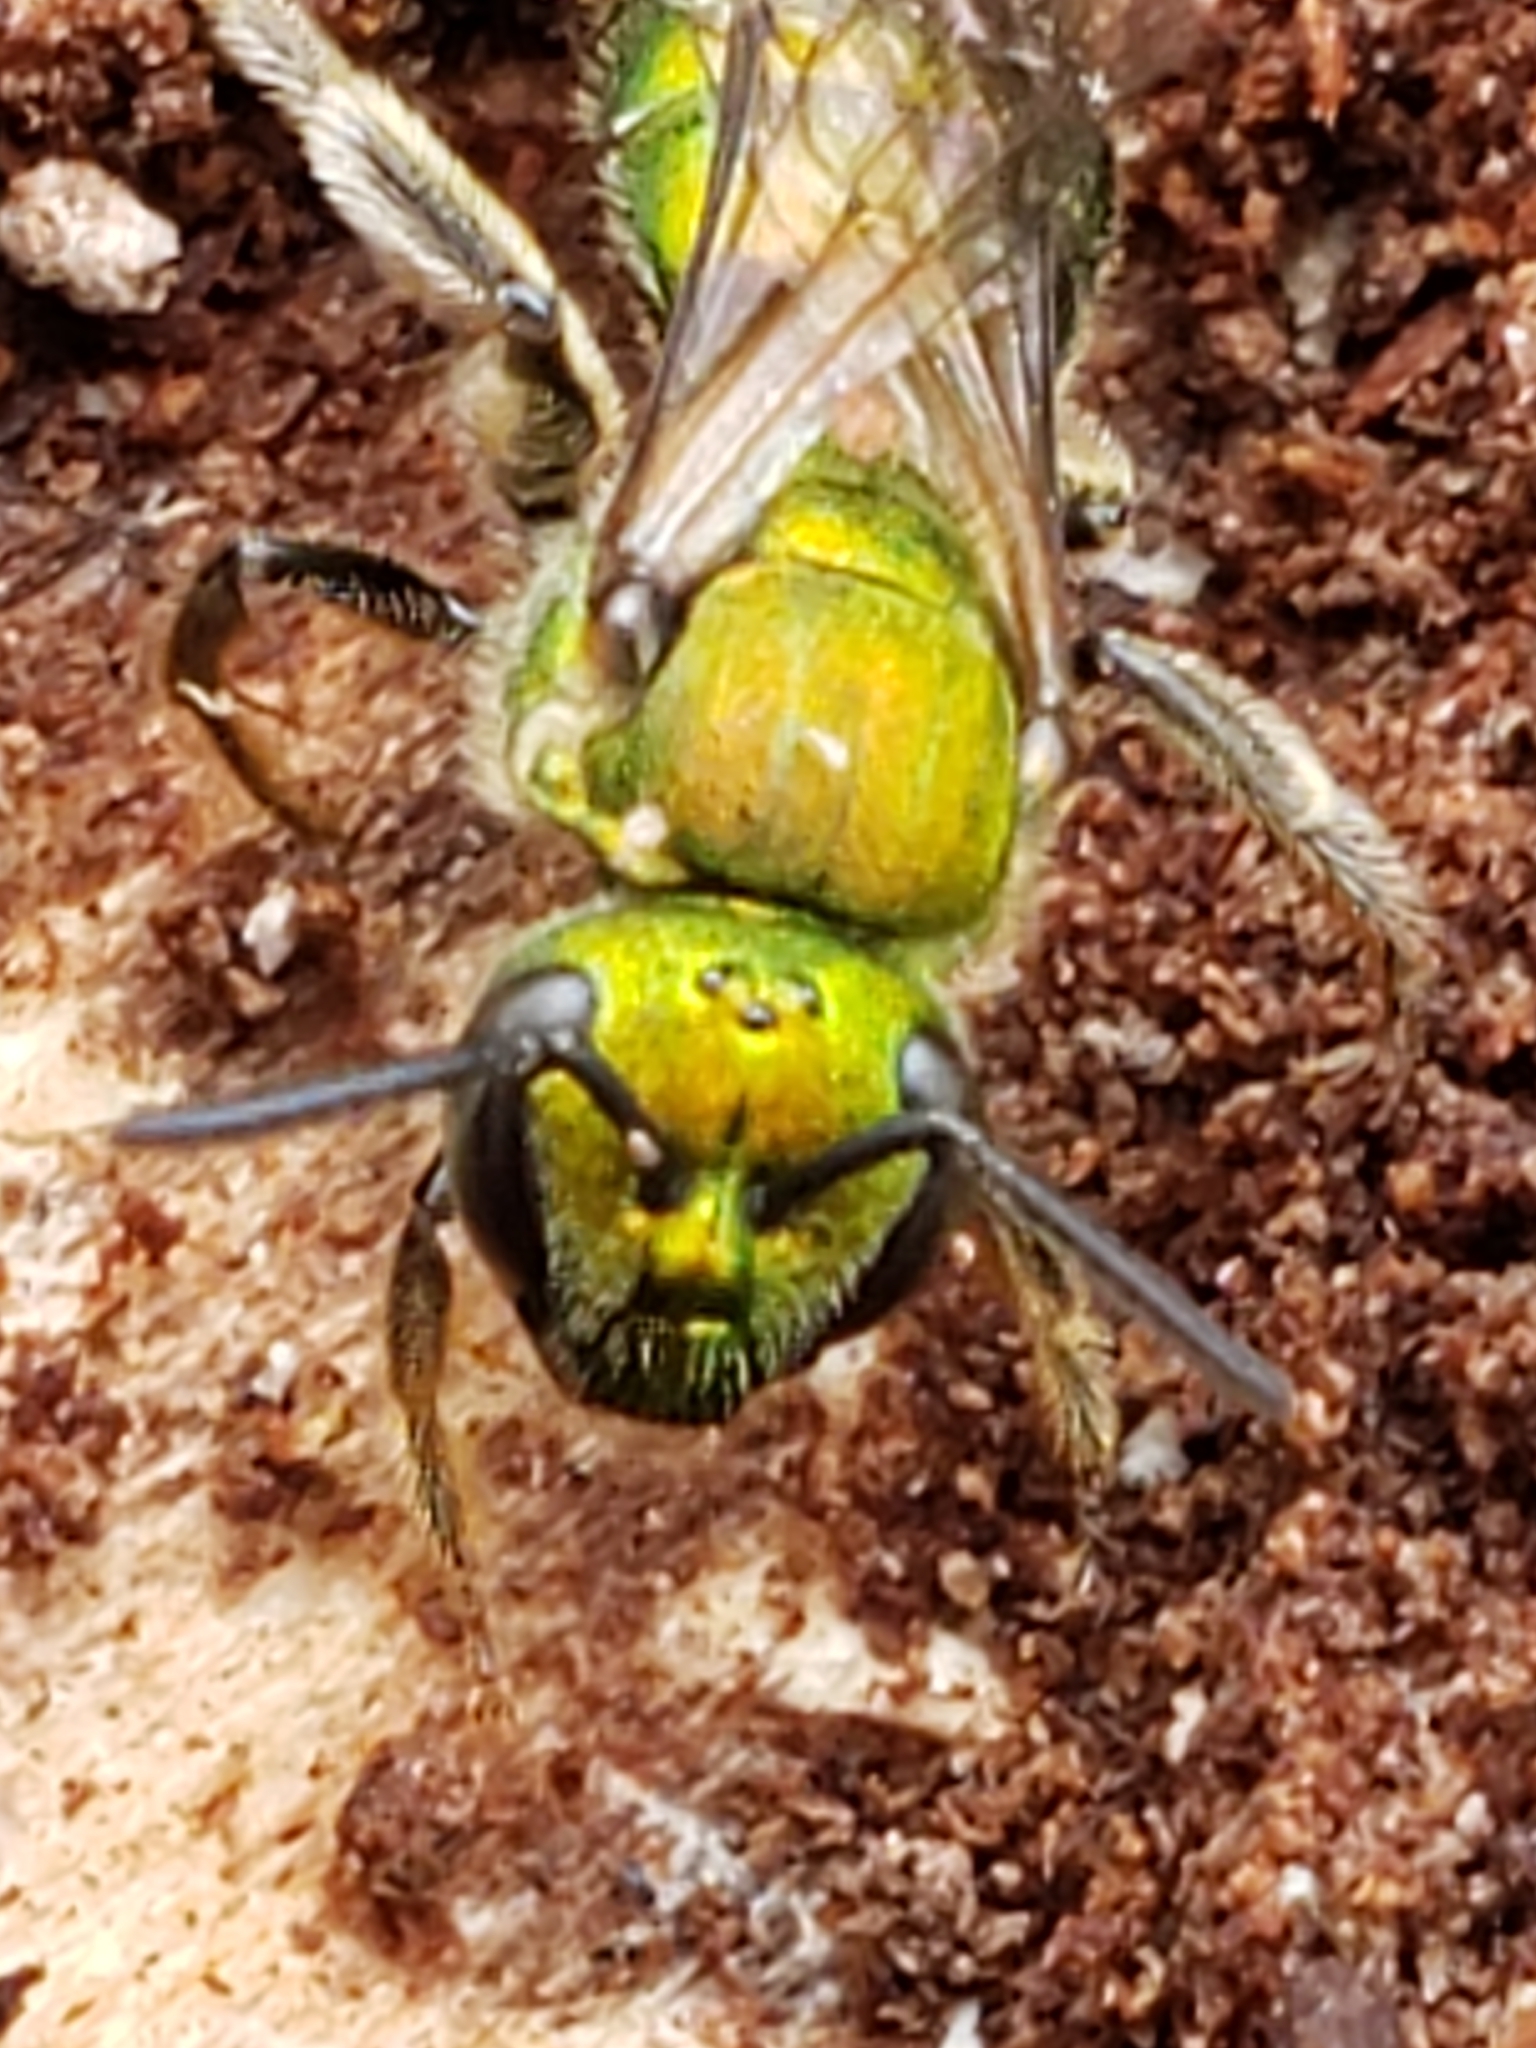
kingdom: Animalia
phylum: Arthropoda
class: Insecta
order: Hymenoptera
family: Halictidae
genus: Augochlora
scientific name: Augochlora pura
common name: Pure green sweat bee
